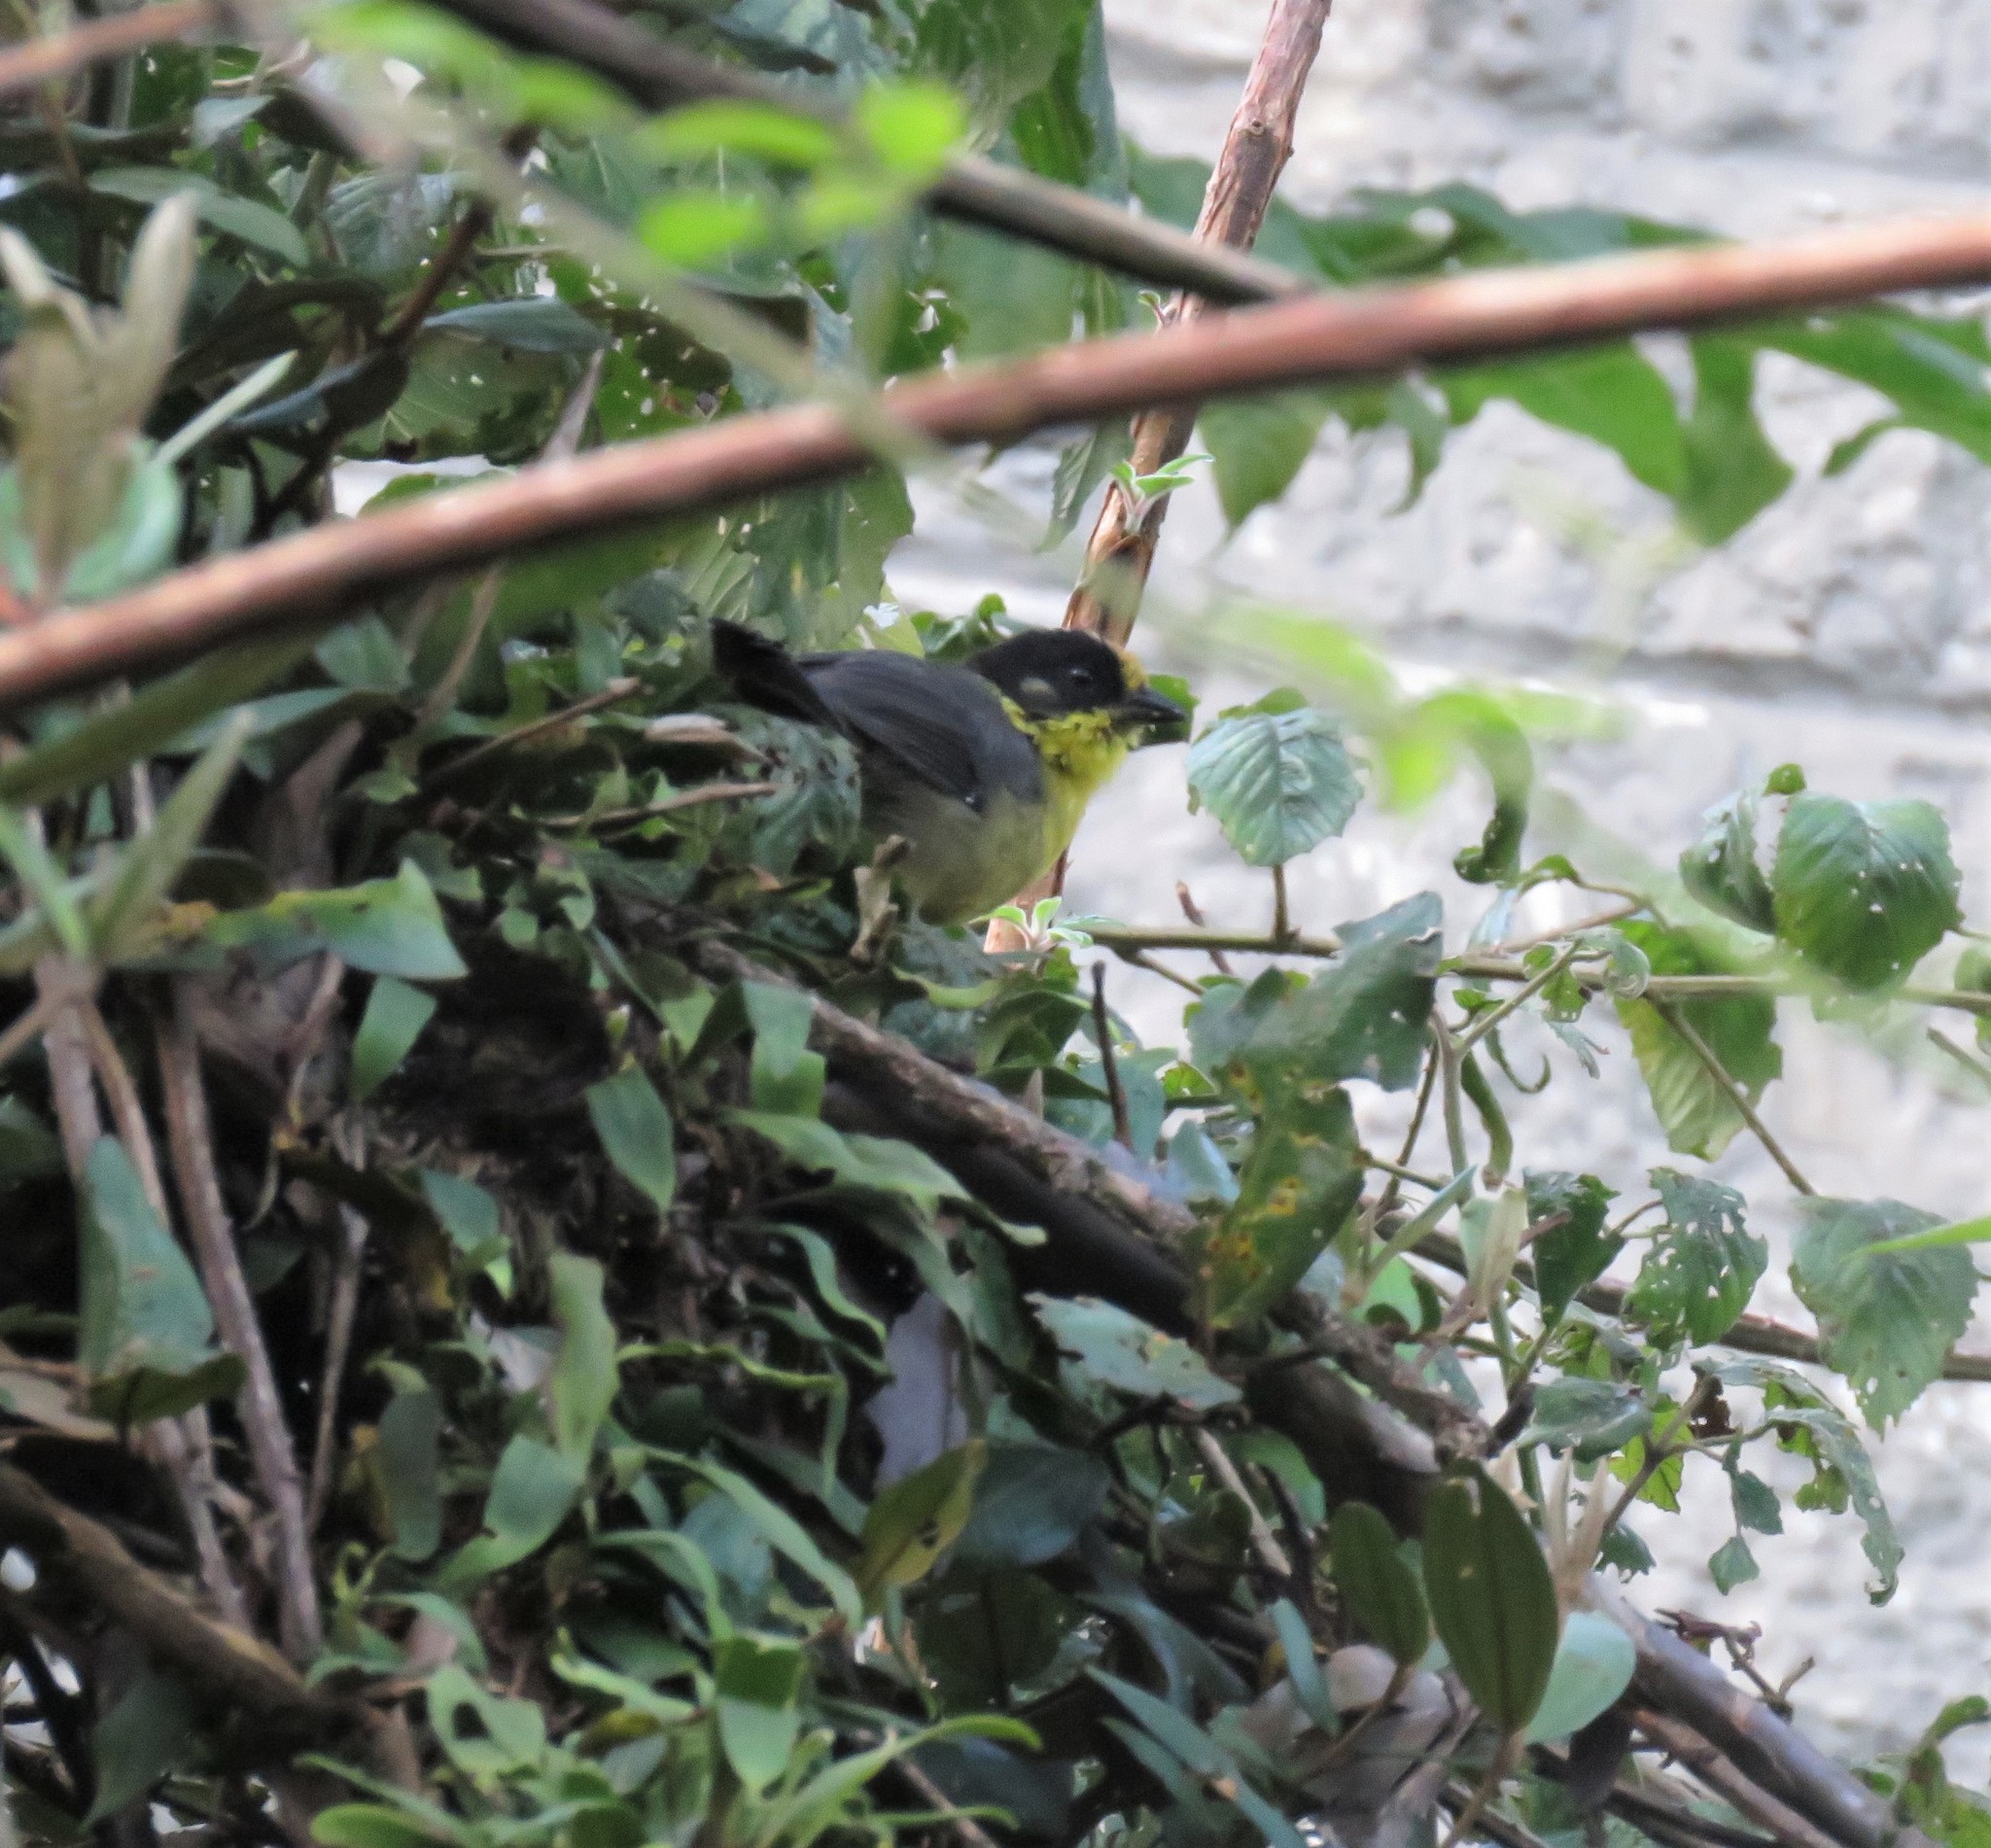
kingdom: Animalia
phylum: Chordata
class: Aves
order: Passeriformes
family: Passerellidae
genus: Atlapetes
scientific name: Atlapetes pallidinucha
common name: Pale-naped brushfinch
